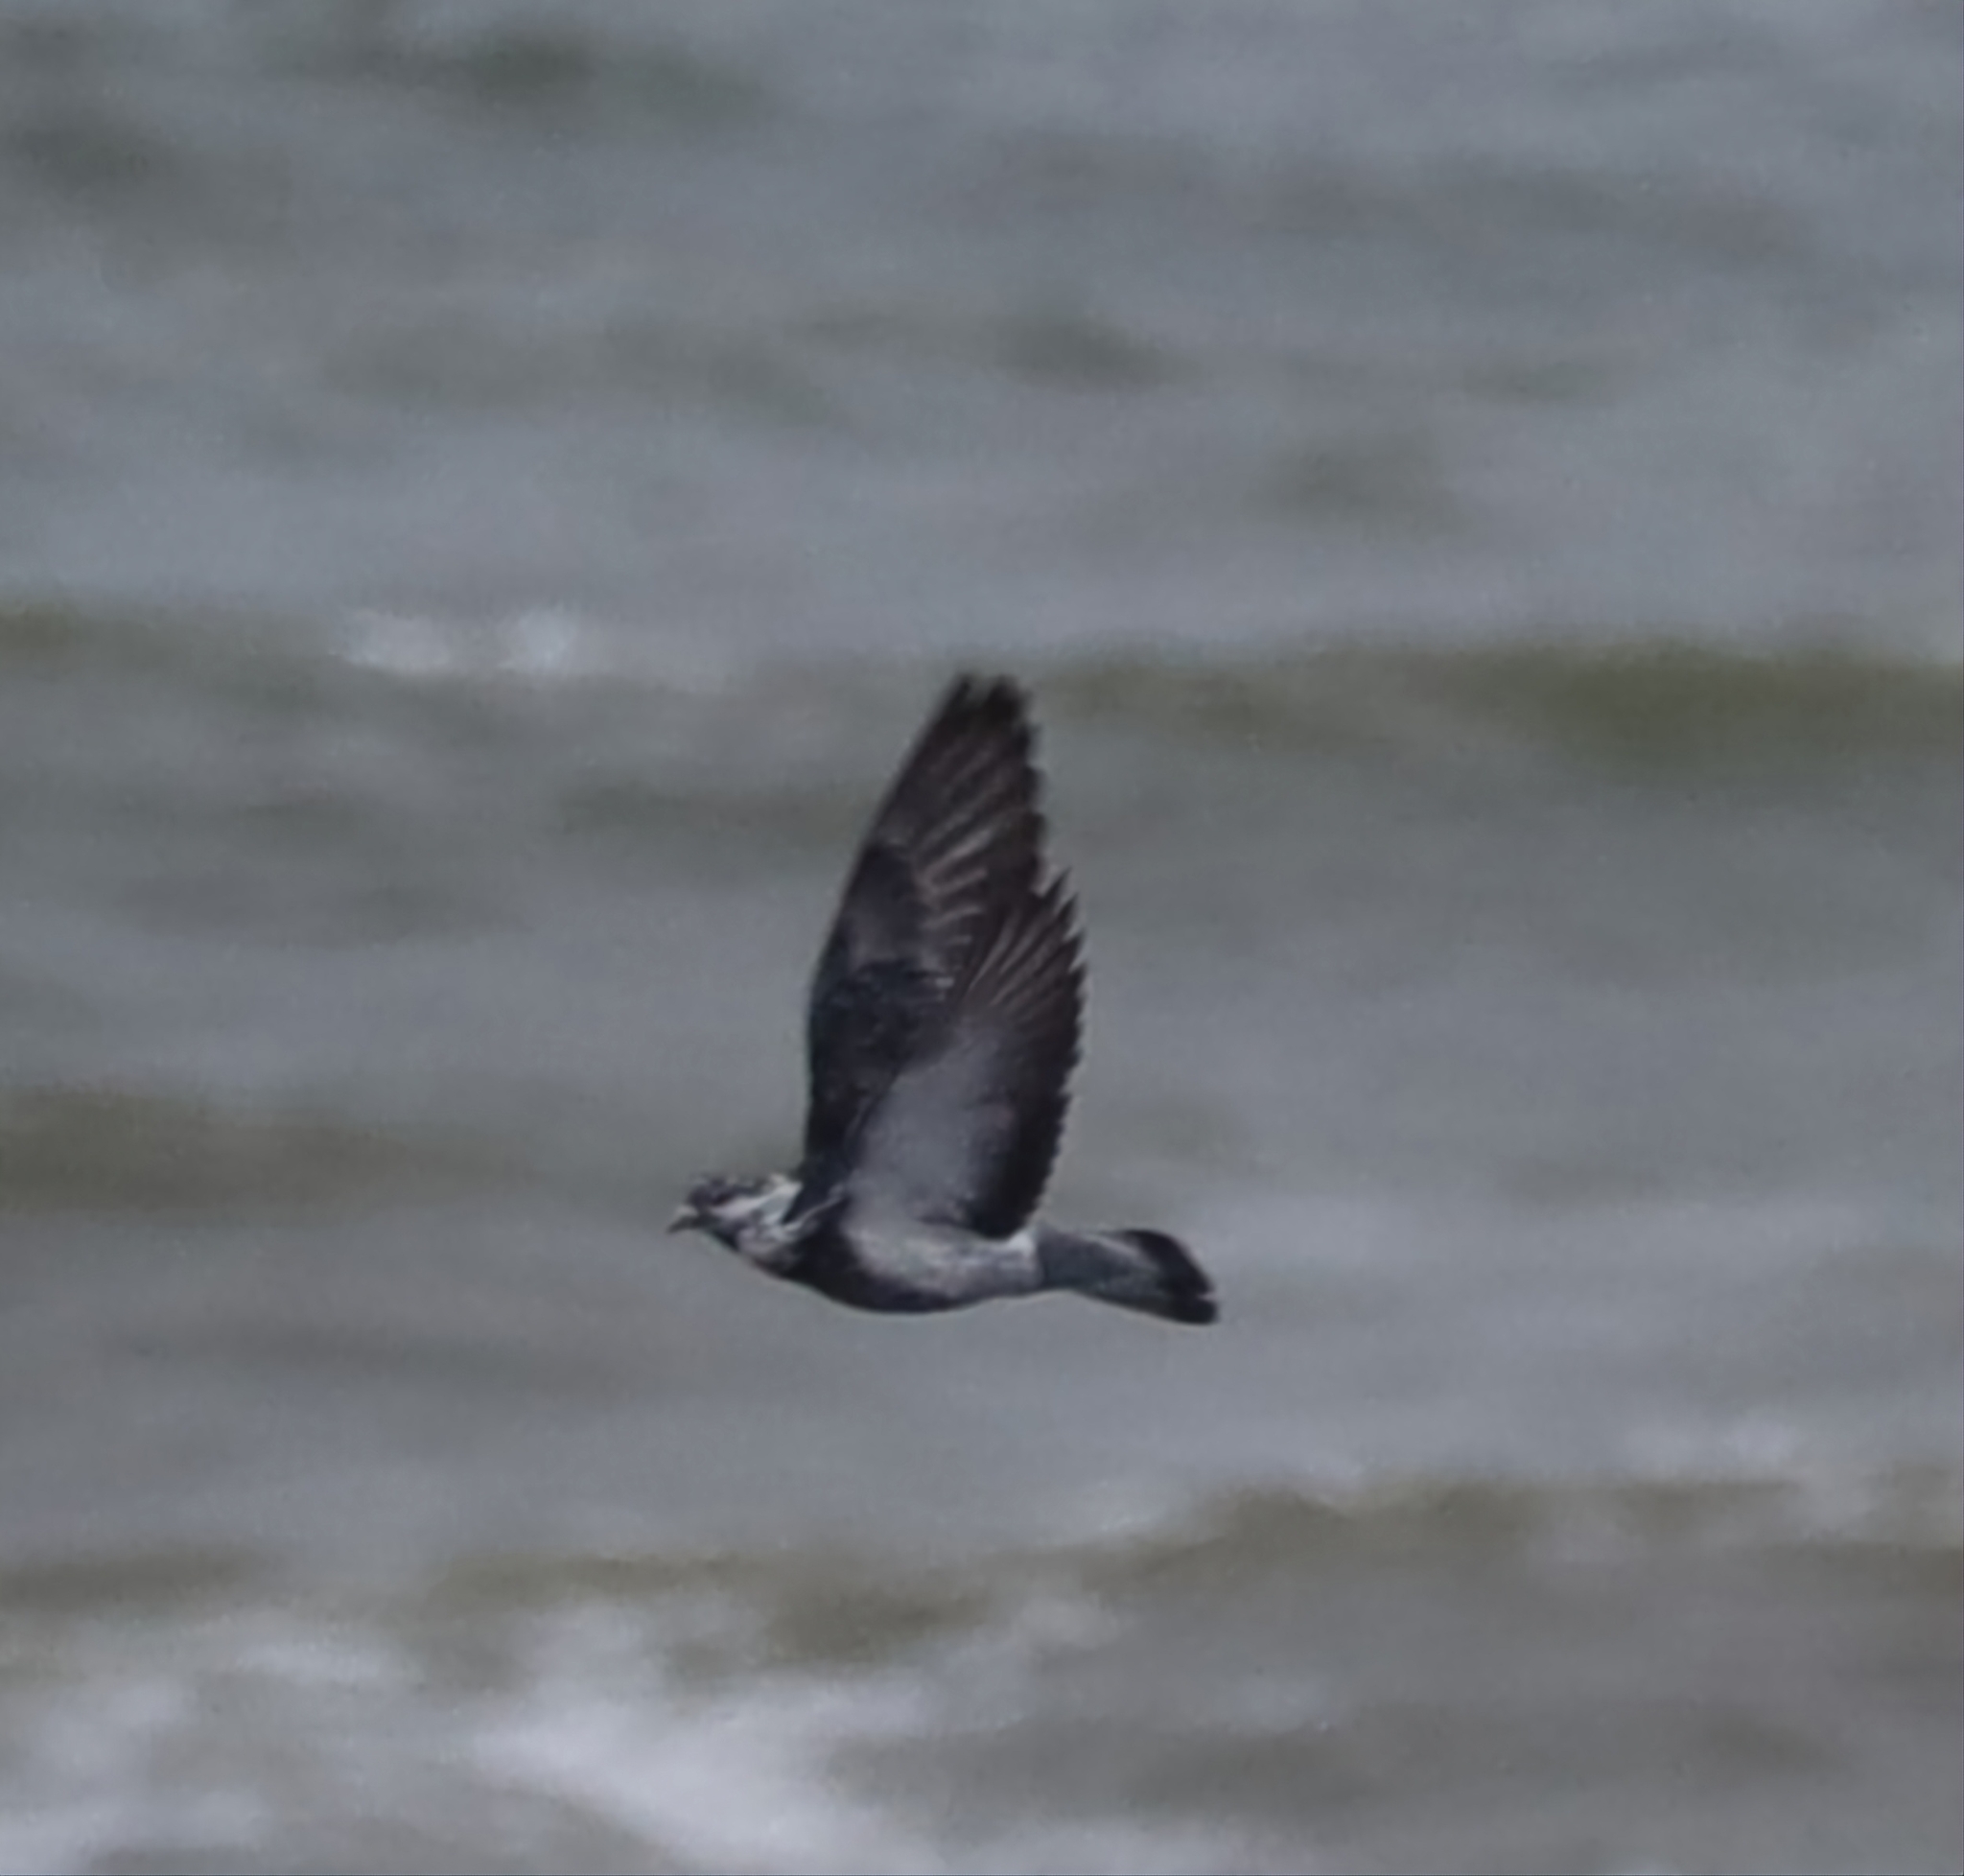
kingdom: Animalia
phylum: Chordata
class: Aves
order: Columbiformes
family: Columbidae
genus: Columba
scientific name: Columba livia
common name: Rock pigeon
